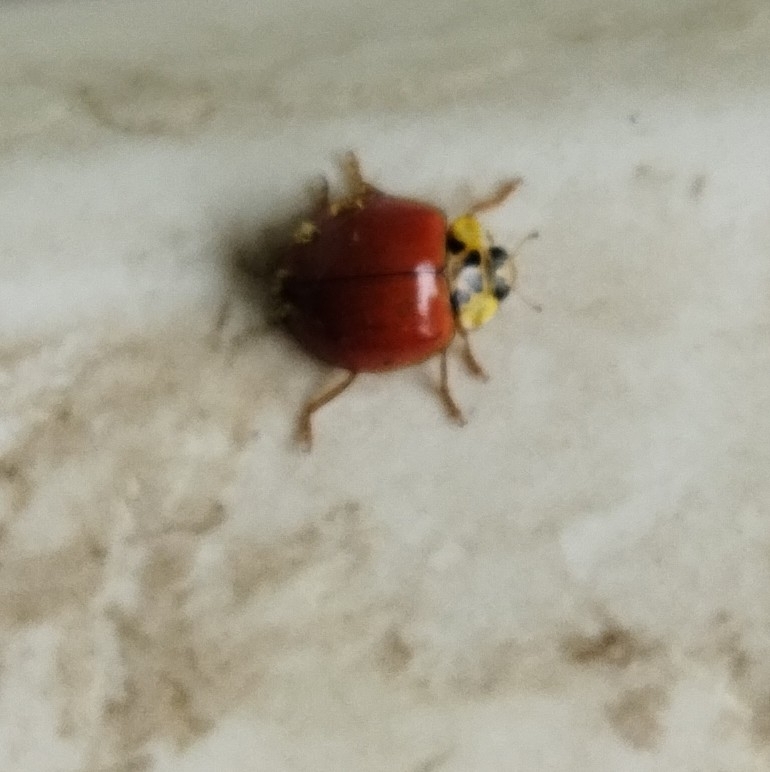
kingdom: Animalia
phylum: Arthropoda
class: Insecta
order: Coleoptera
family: Coccinellidae
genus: Harmonia
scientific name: Harmonia axyridis
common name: Harlequin ladybird
